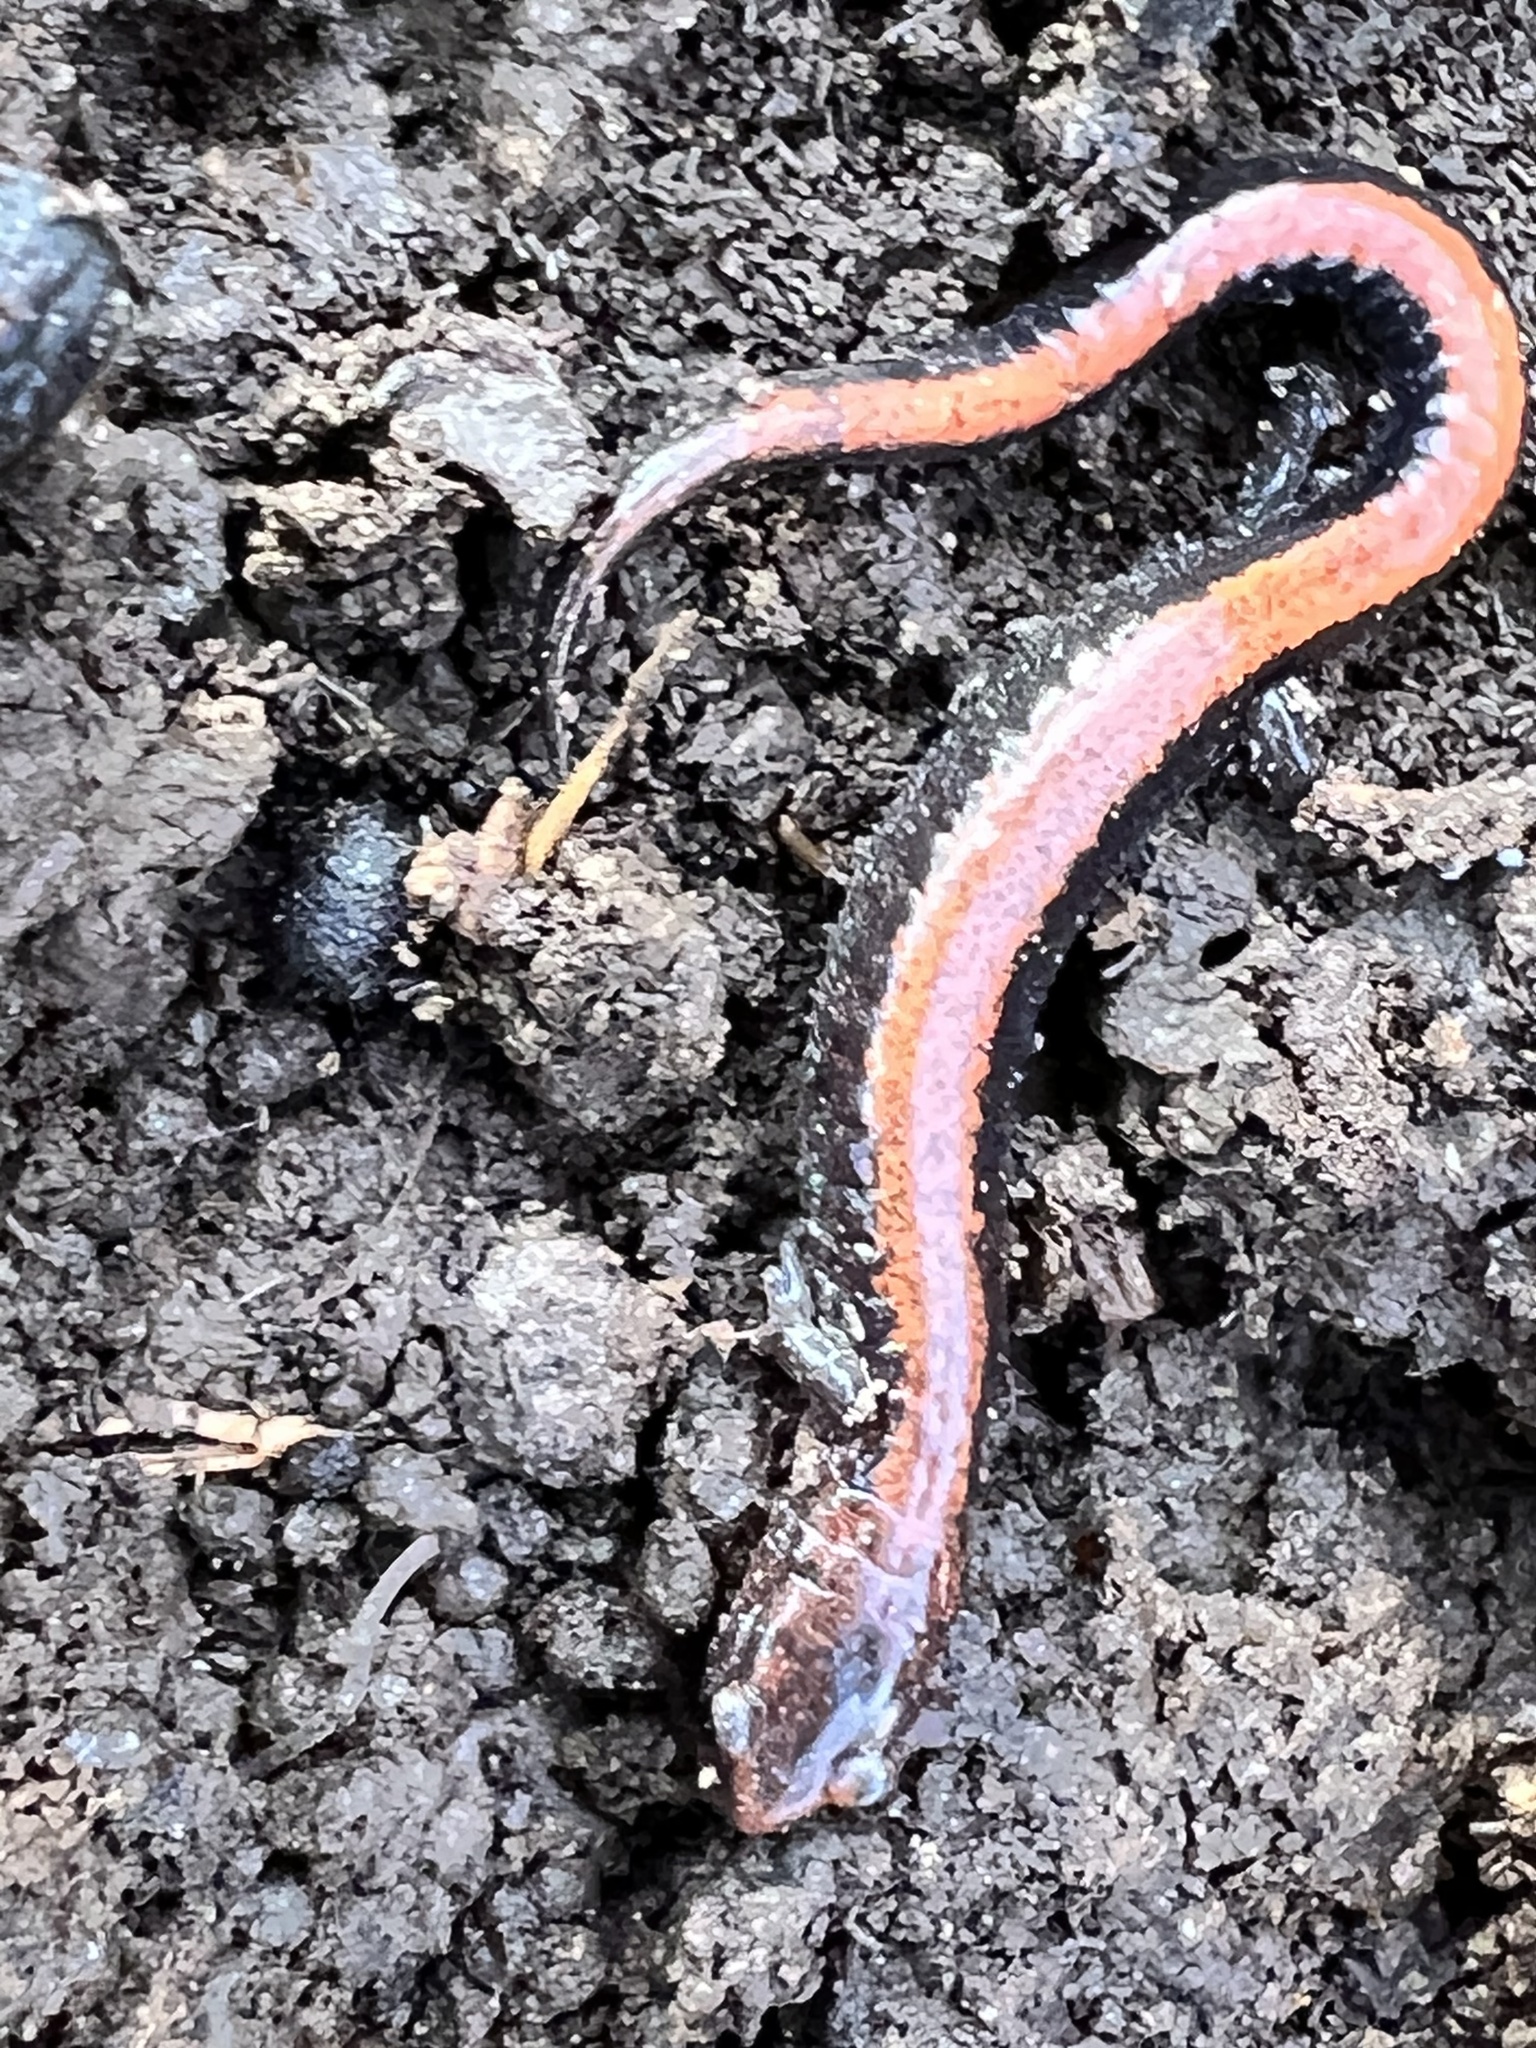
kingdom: Animalia
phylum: Chordata
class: Amphibia
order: Caudata
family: Plethodontidae
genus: Plethodon
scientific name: Plethodon cinereus
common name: Redback salamander
